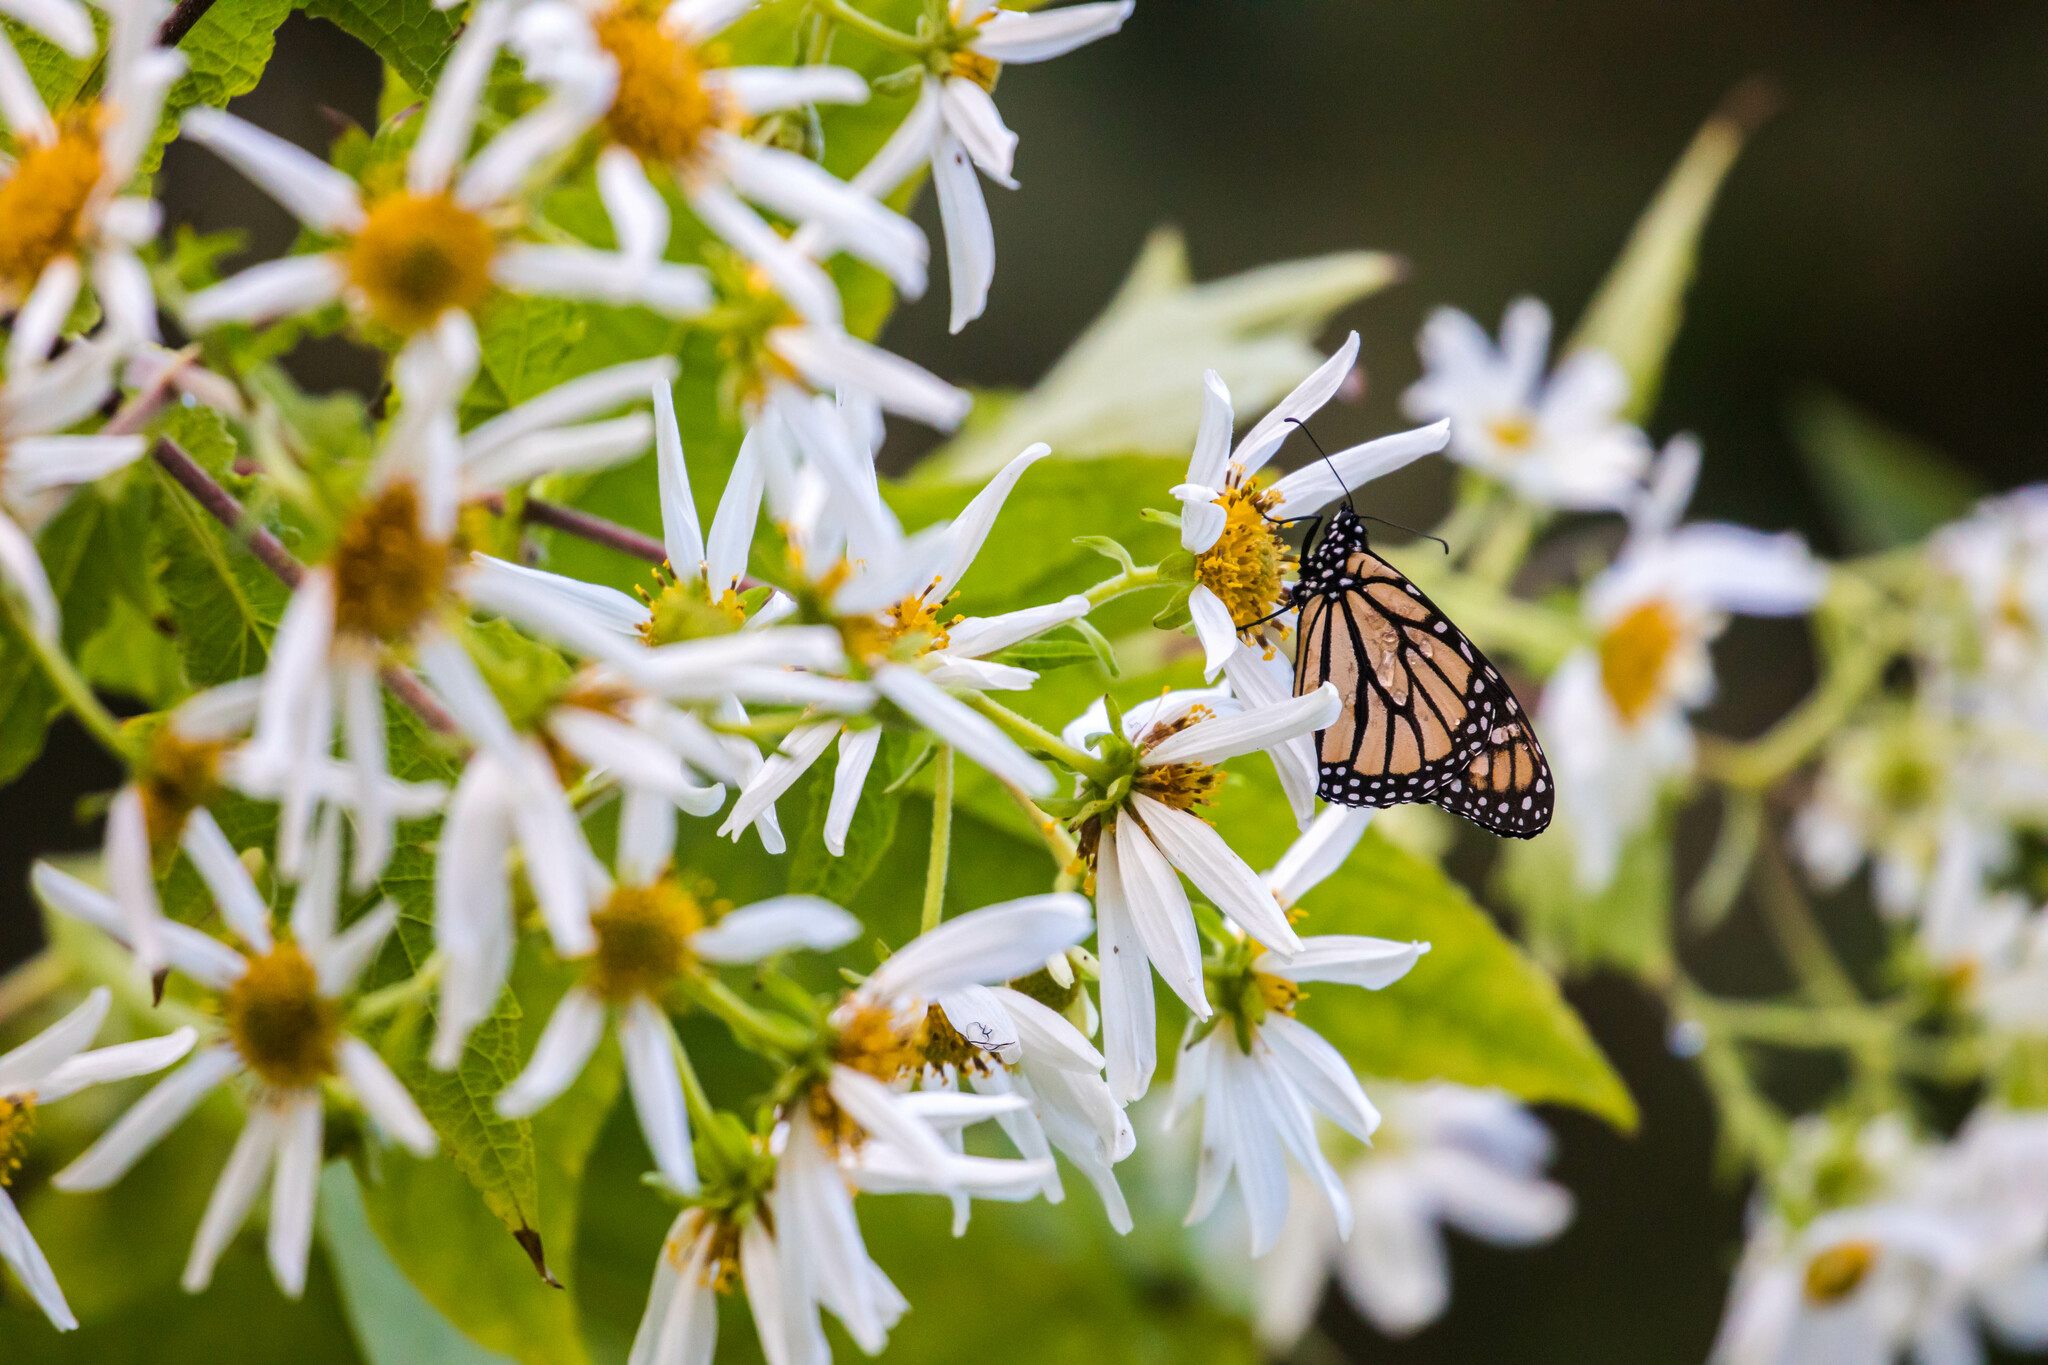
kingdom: Animalia
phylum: Arthropoda
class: Insecta
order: Lepidoptera
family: Nymphalidae
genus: Danaus
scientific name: Danaus plexippus
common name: Monarch
